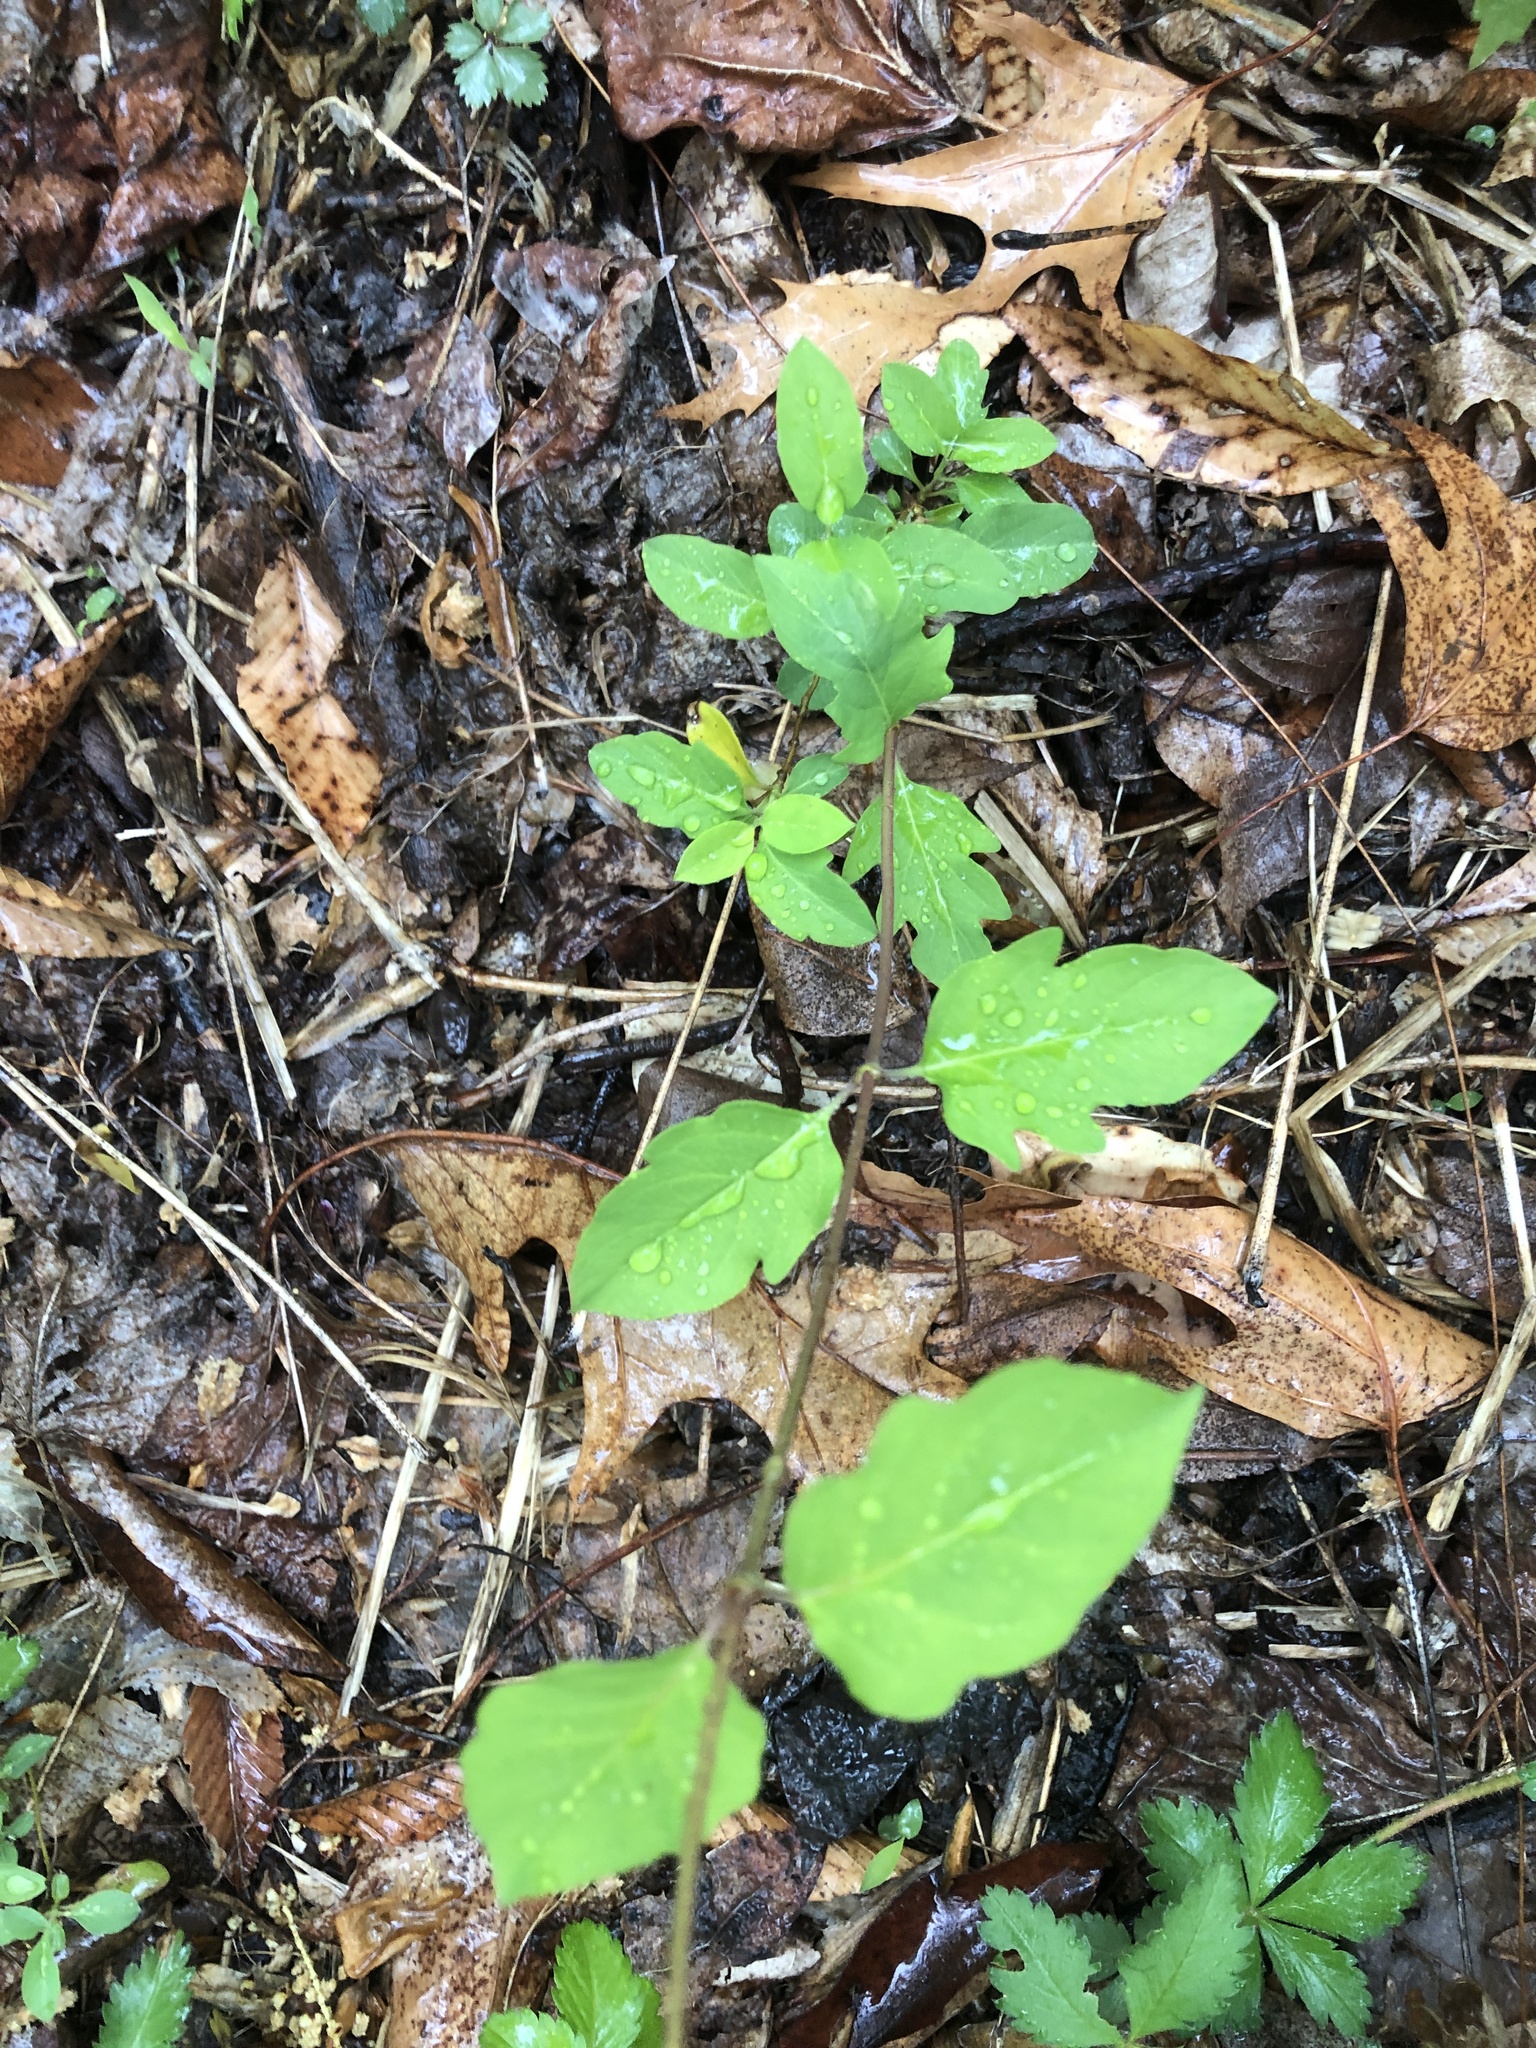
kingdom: Plantae
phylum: Tracheophyta
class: Magnoliopsida
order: Dipsacales
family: Caprifoliaceae
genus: Lonicera
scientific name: Lonicera japonica
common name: Japanese honeysuckle
